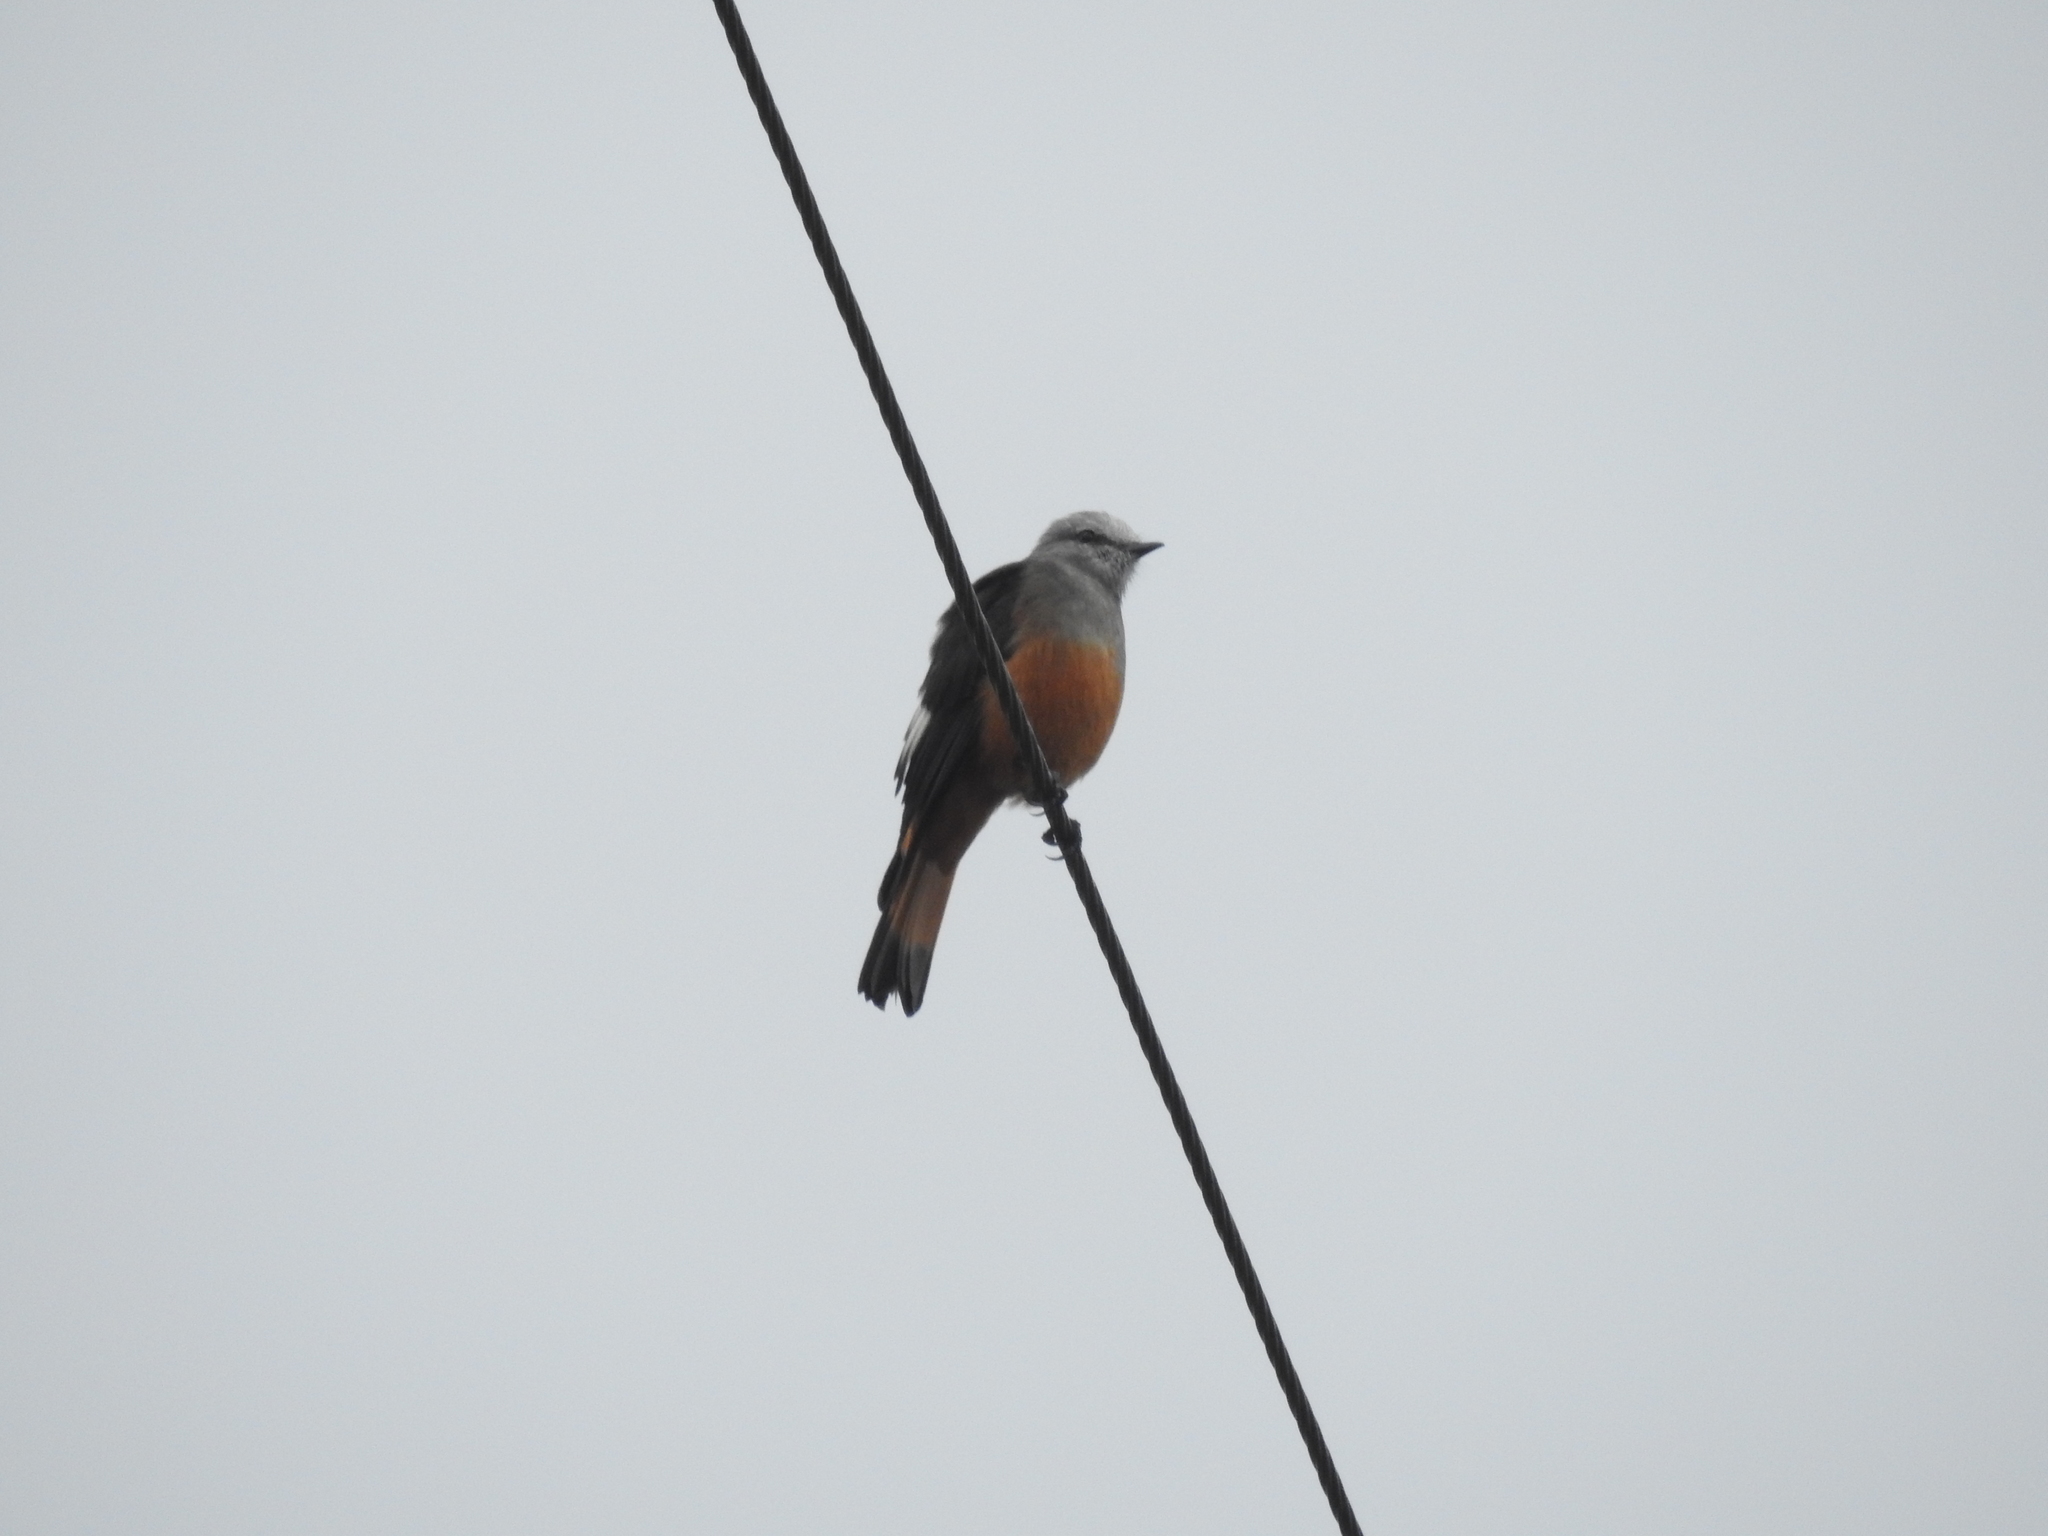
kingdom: Animalia
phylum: Chordata
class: Aves
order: Passeriformes
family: Tyrannidae
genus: Cnemarchus
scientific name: Cnemarchus erythropygius
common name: Red-rumped bush tyrant
